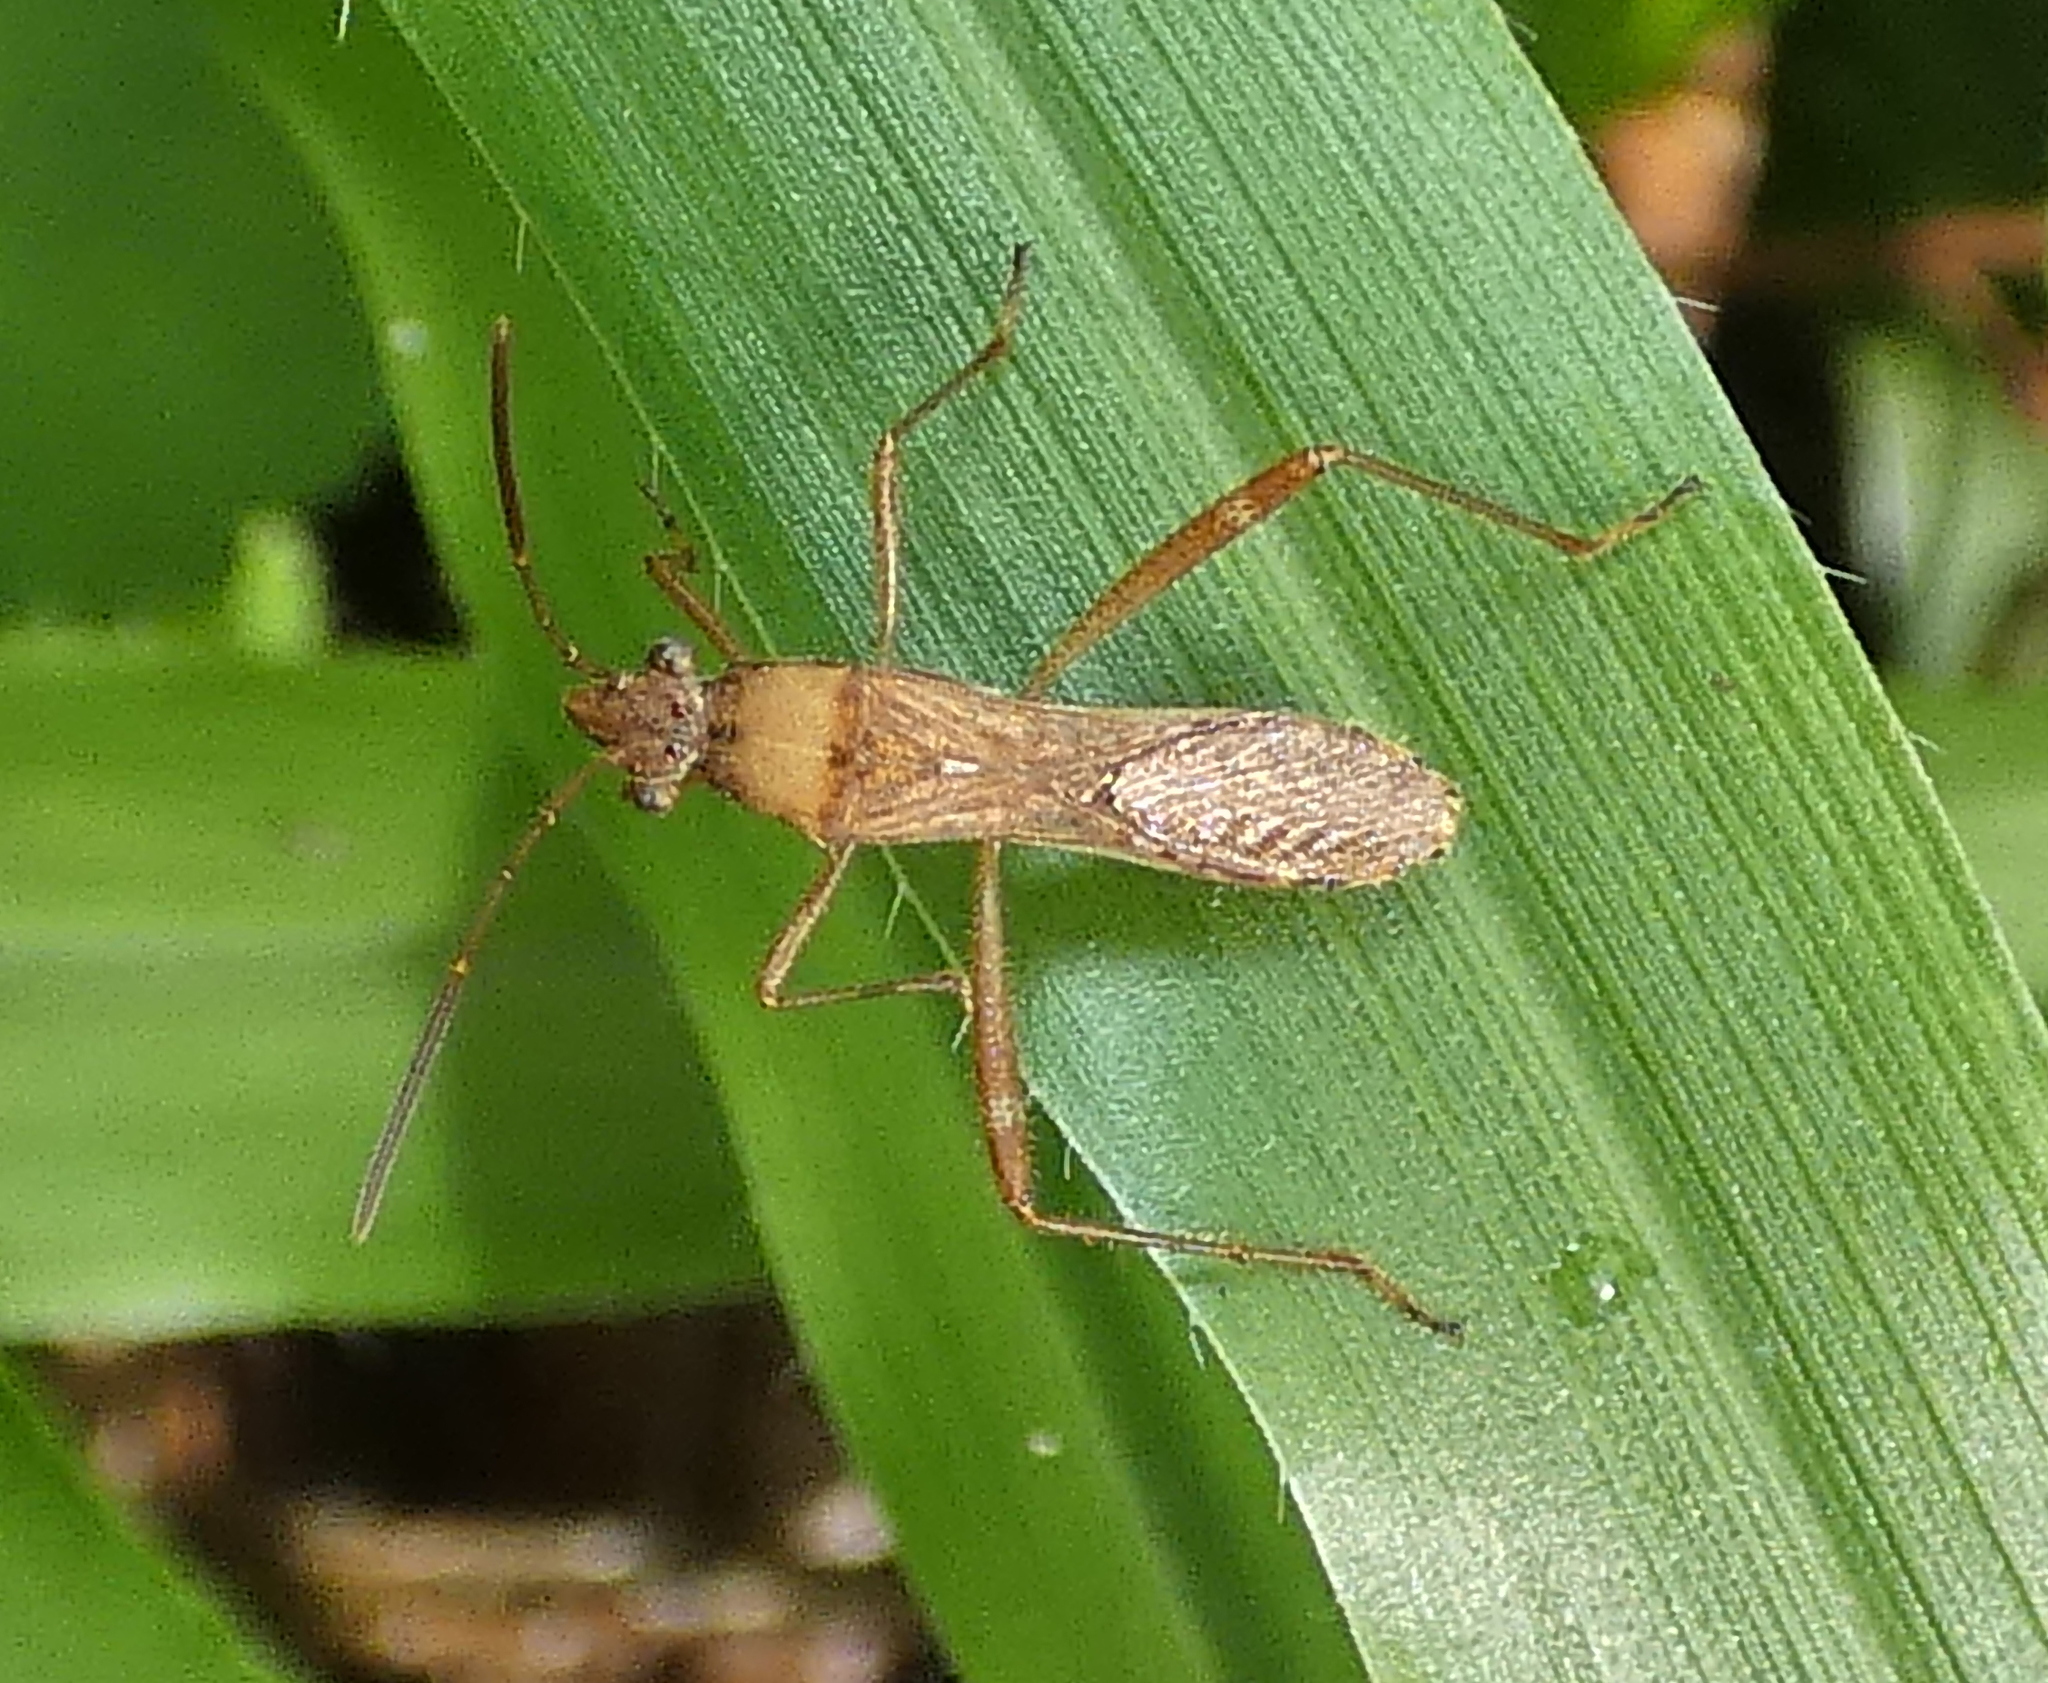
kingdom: Animalia
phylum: Arthropoda
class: Insecta
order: Hemiptera
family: Alydidae
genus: Neomegalotomus
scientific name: Neomegalotomus parvus
